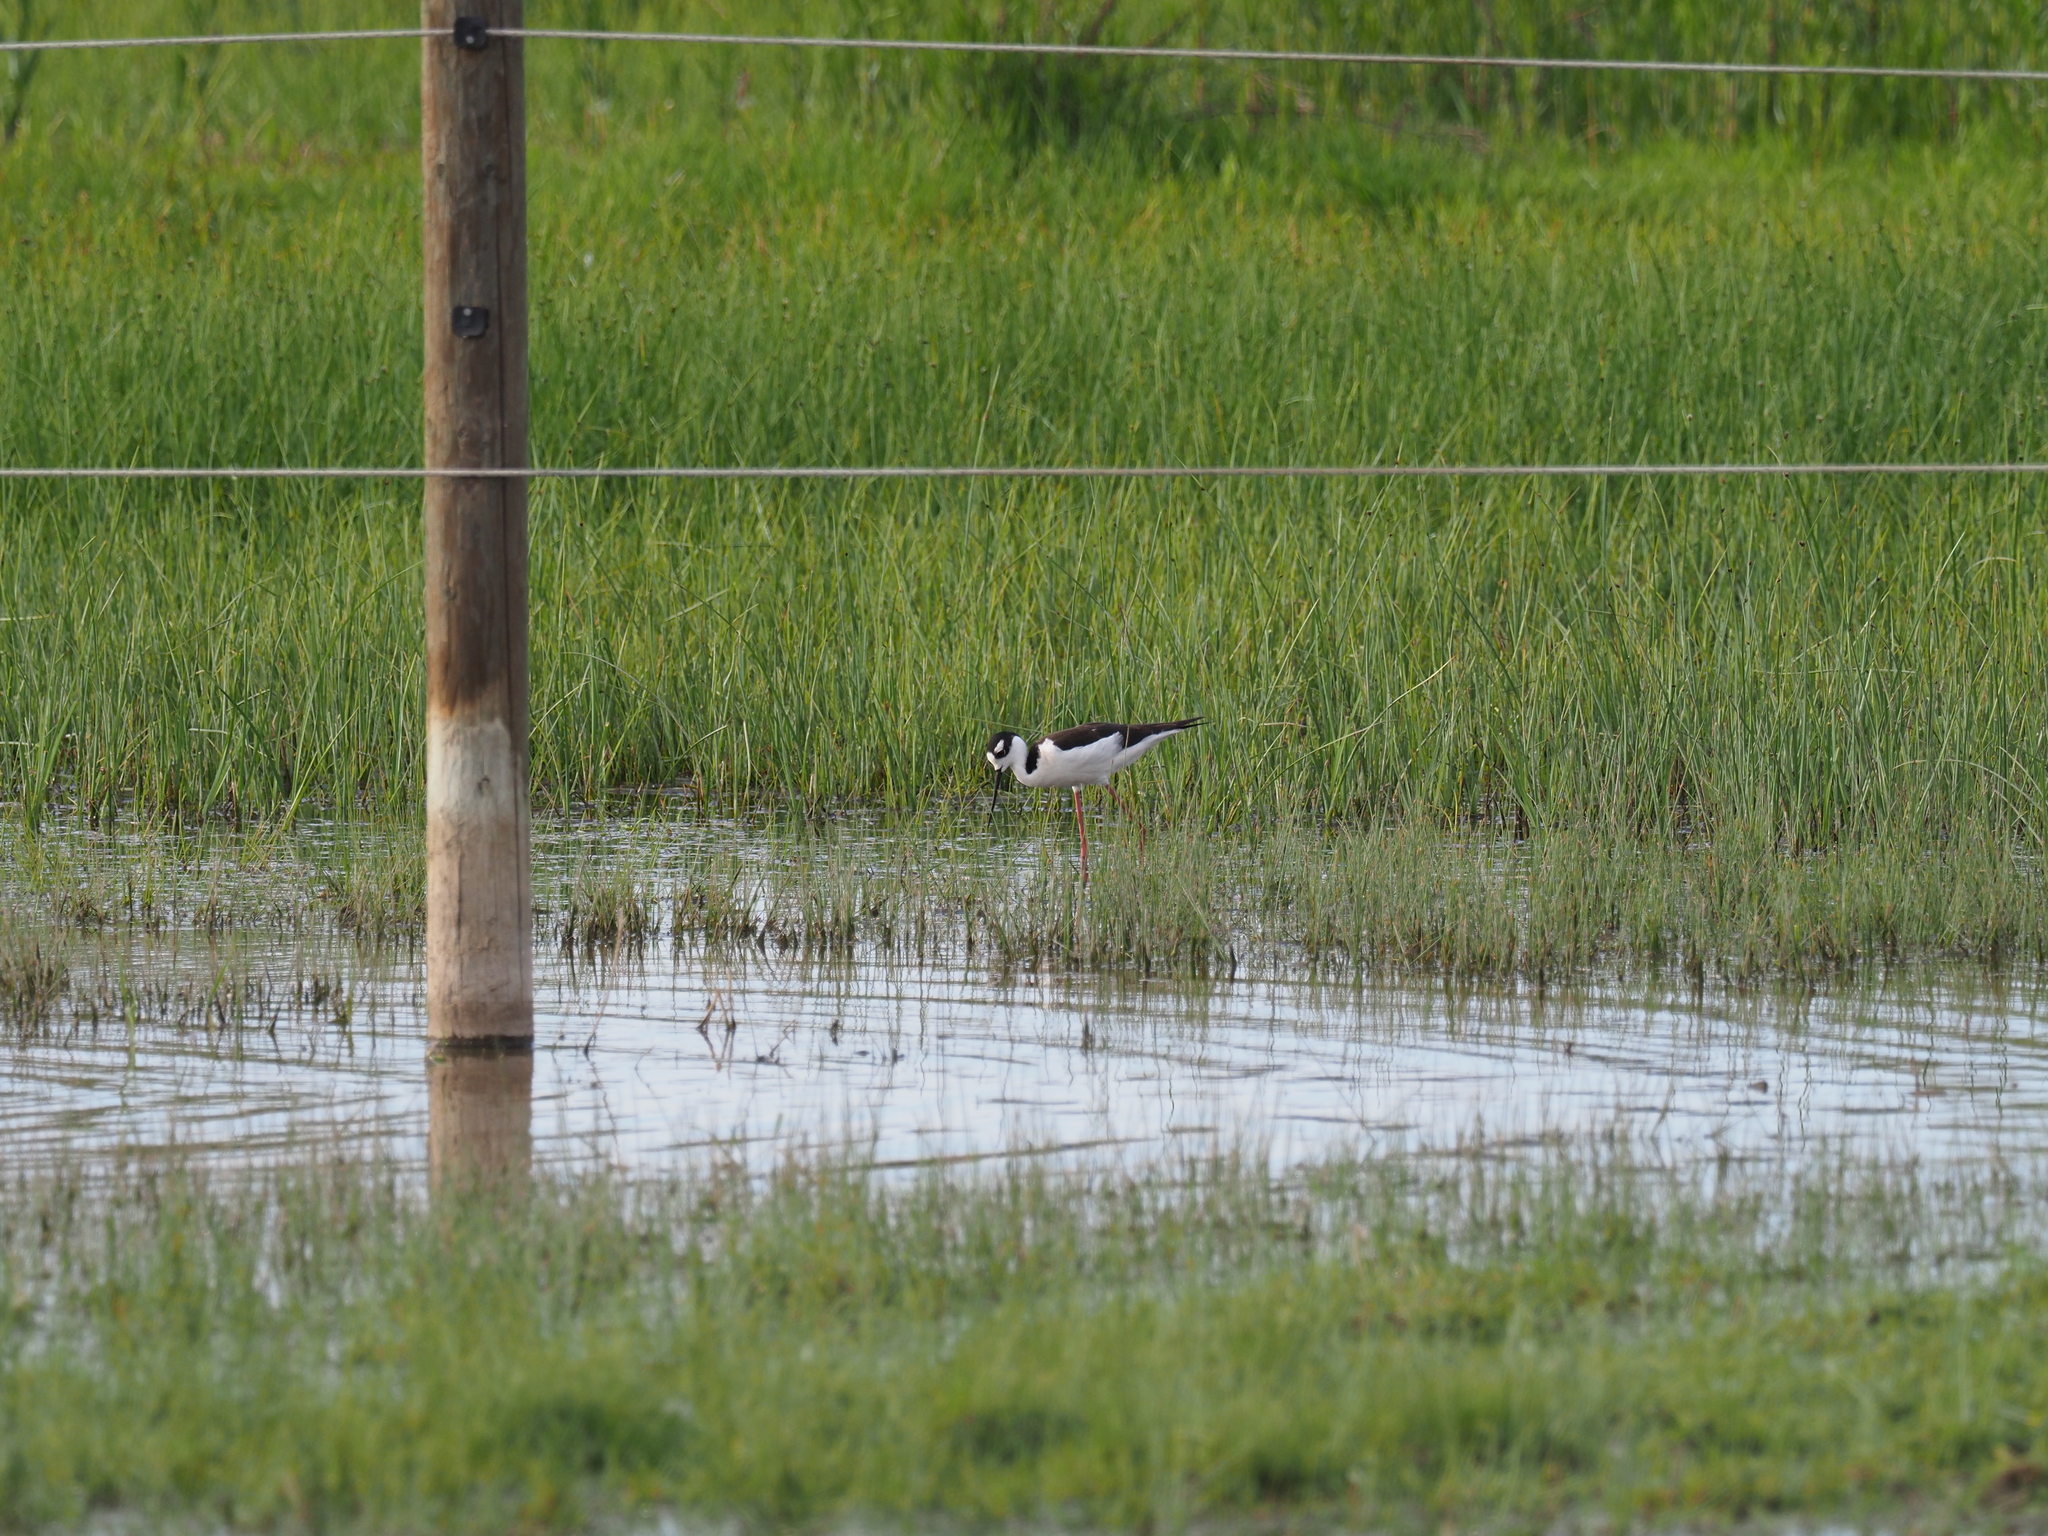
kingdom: Animalia
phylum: Chordata
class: Aves
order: Charadriiformes
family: Recurvirostridae
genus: Himantopus
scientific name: Himantopus mexicanus
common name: Black-necked stilt
